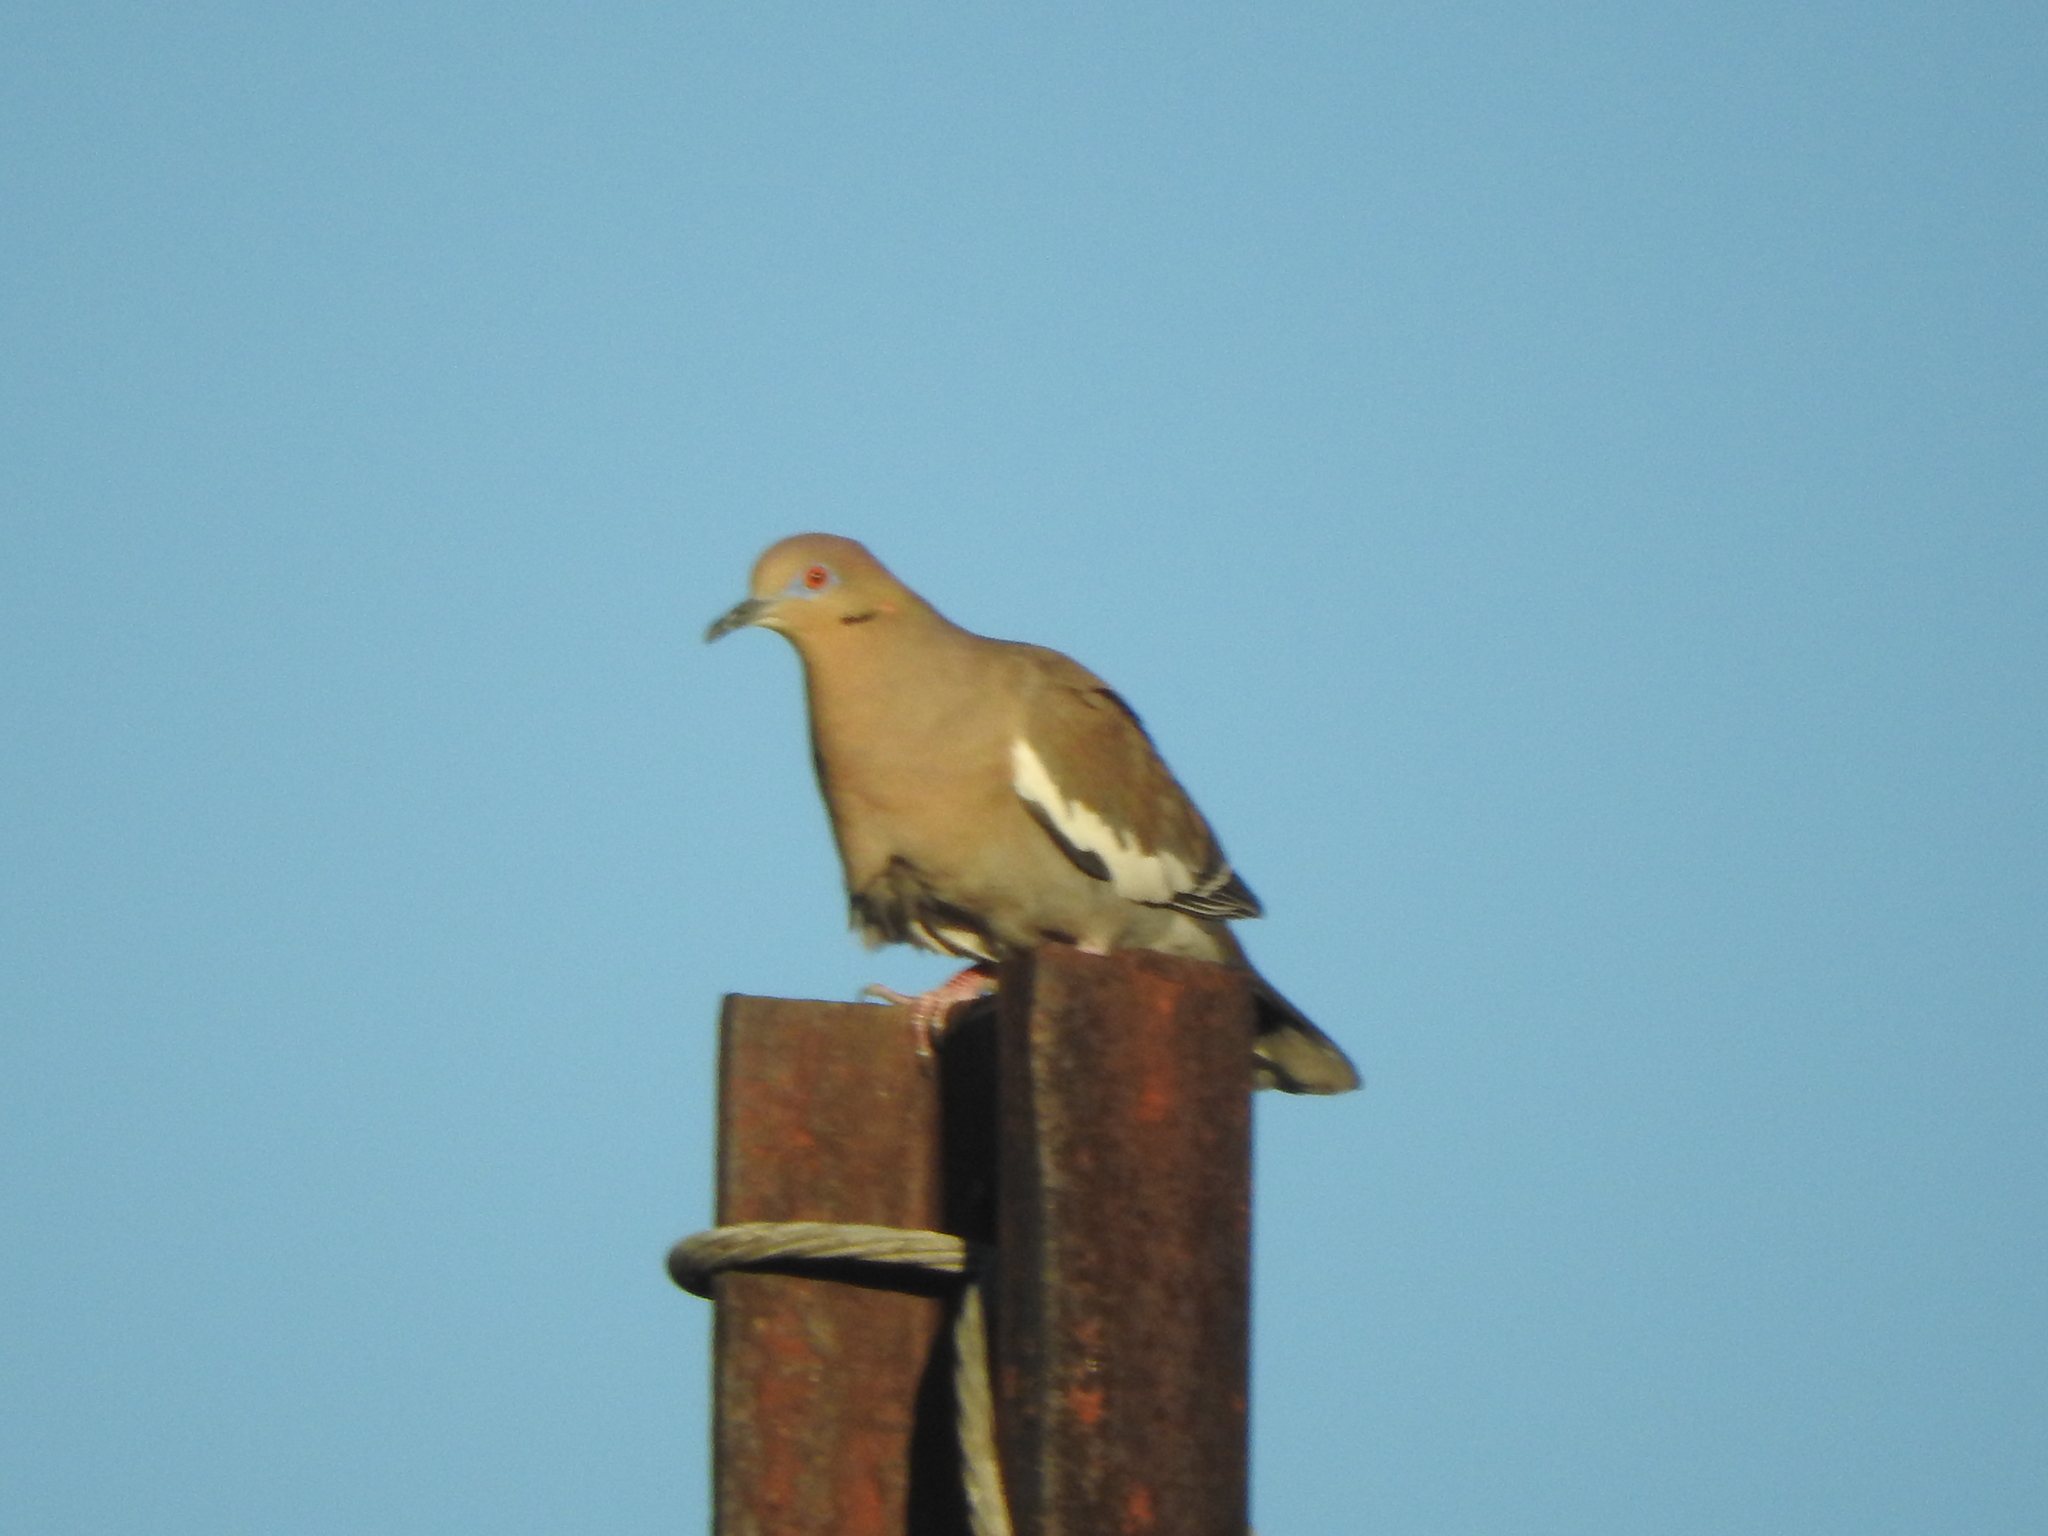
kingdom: Animalia
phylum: Chordata
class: Aves
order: Columbiformes
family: Columbidae
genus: Zenaida
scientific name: Zenaida asiatica
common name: White-winged dove
